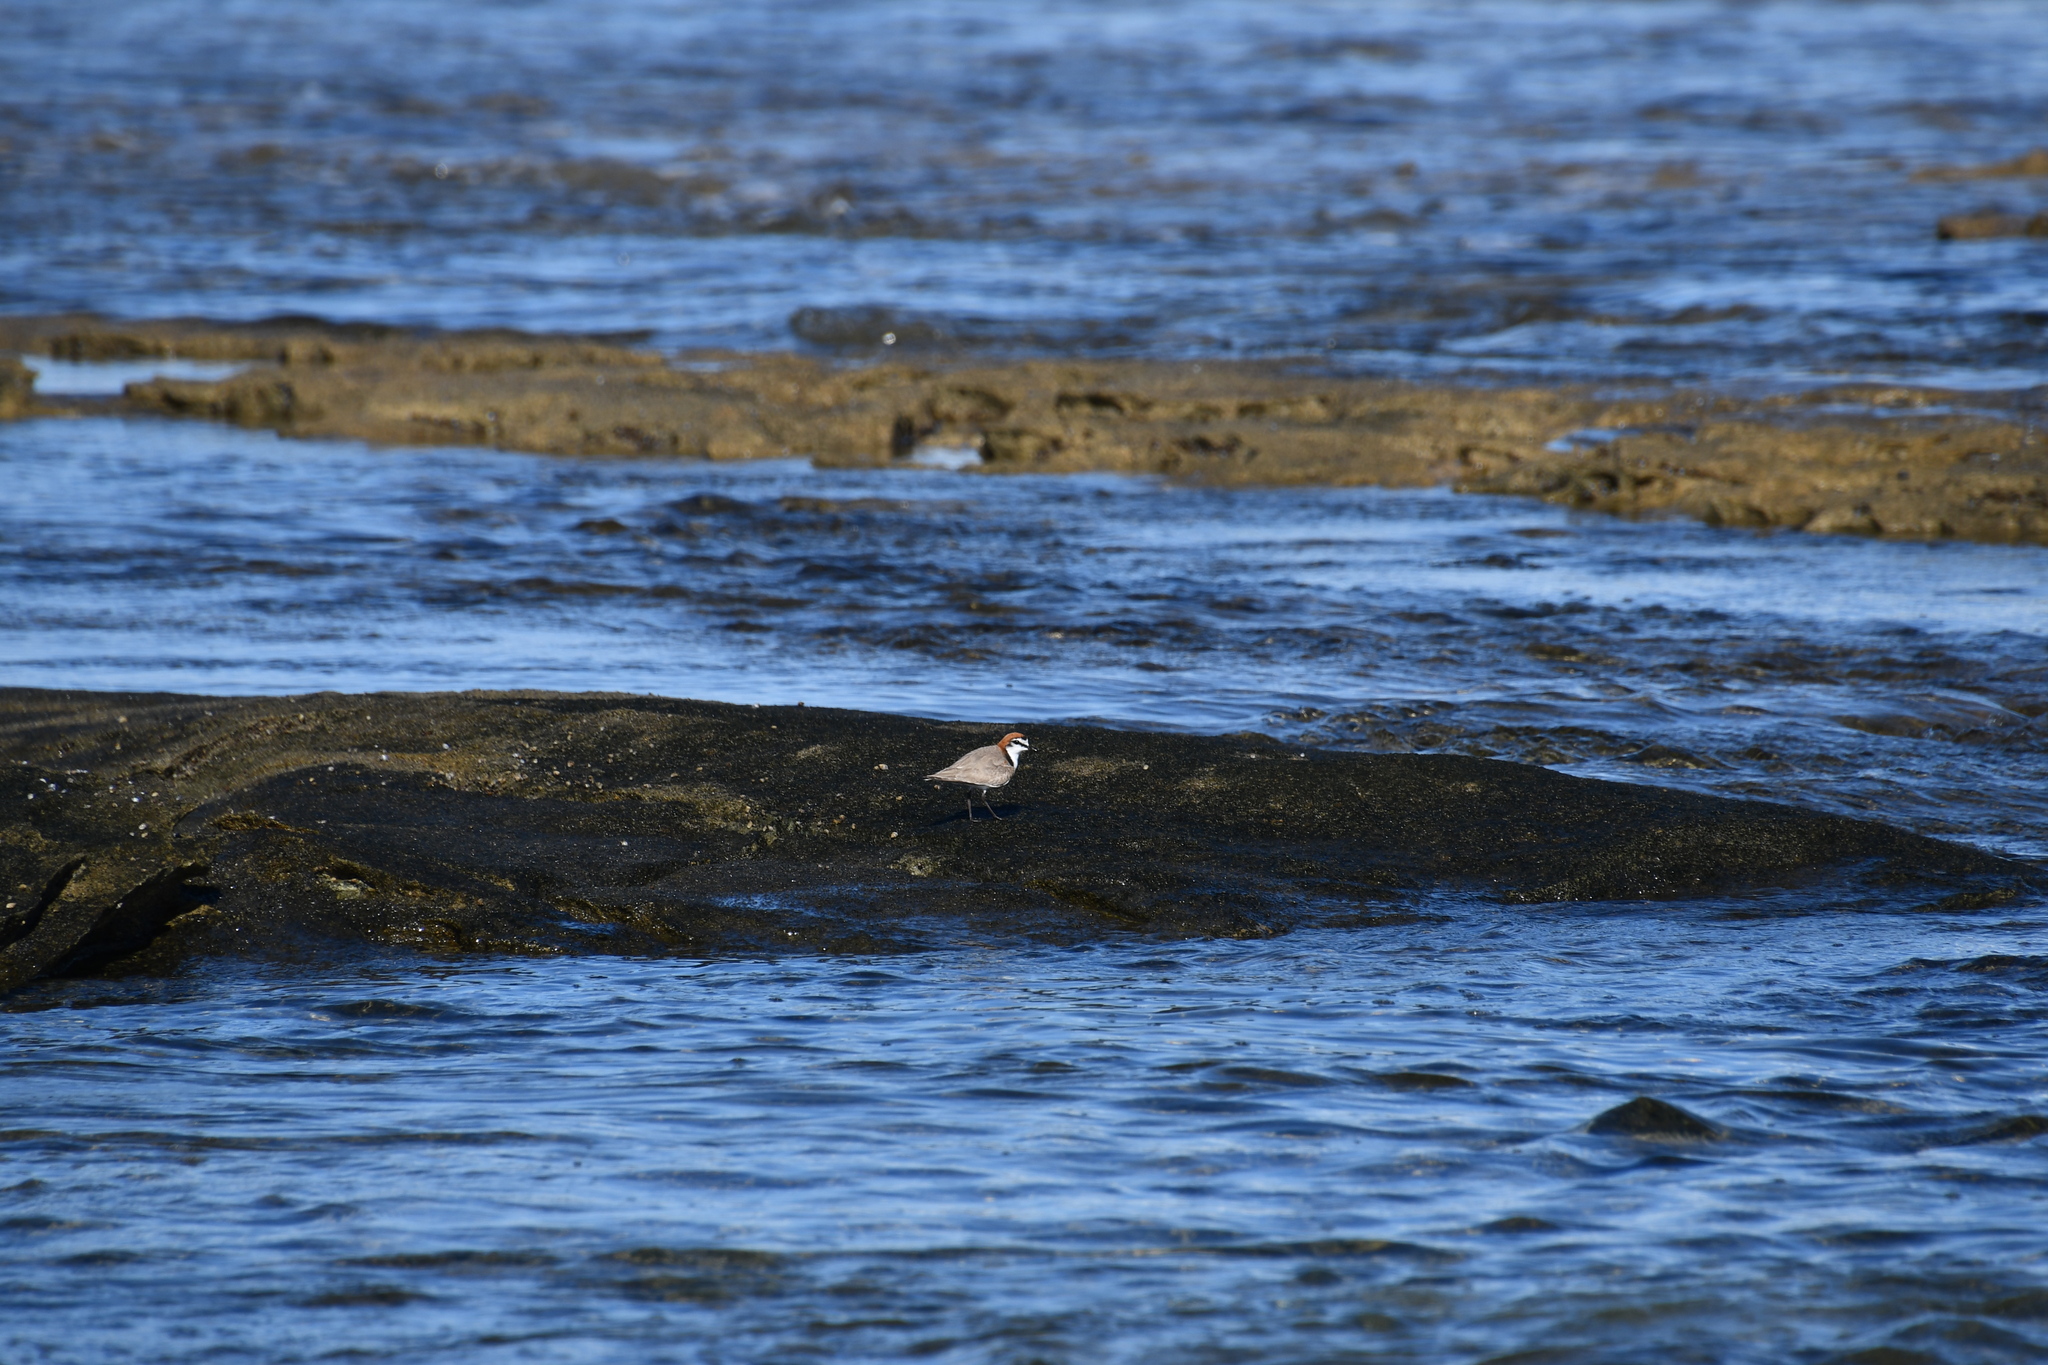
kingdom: Animalia
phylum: Chordata
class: Aves
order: Charadriiformes
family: Charadriidae
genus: Anarhynchus
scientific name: Anarhynchus
